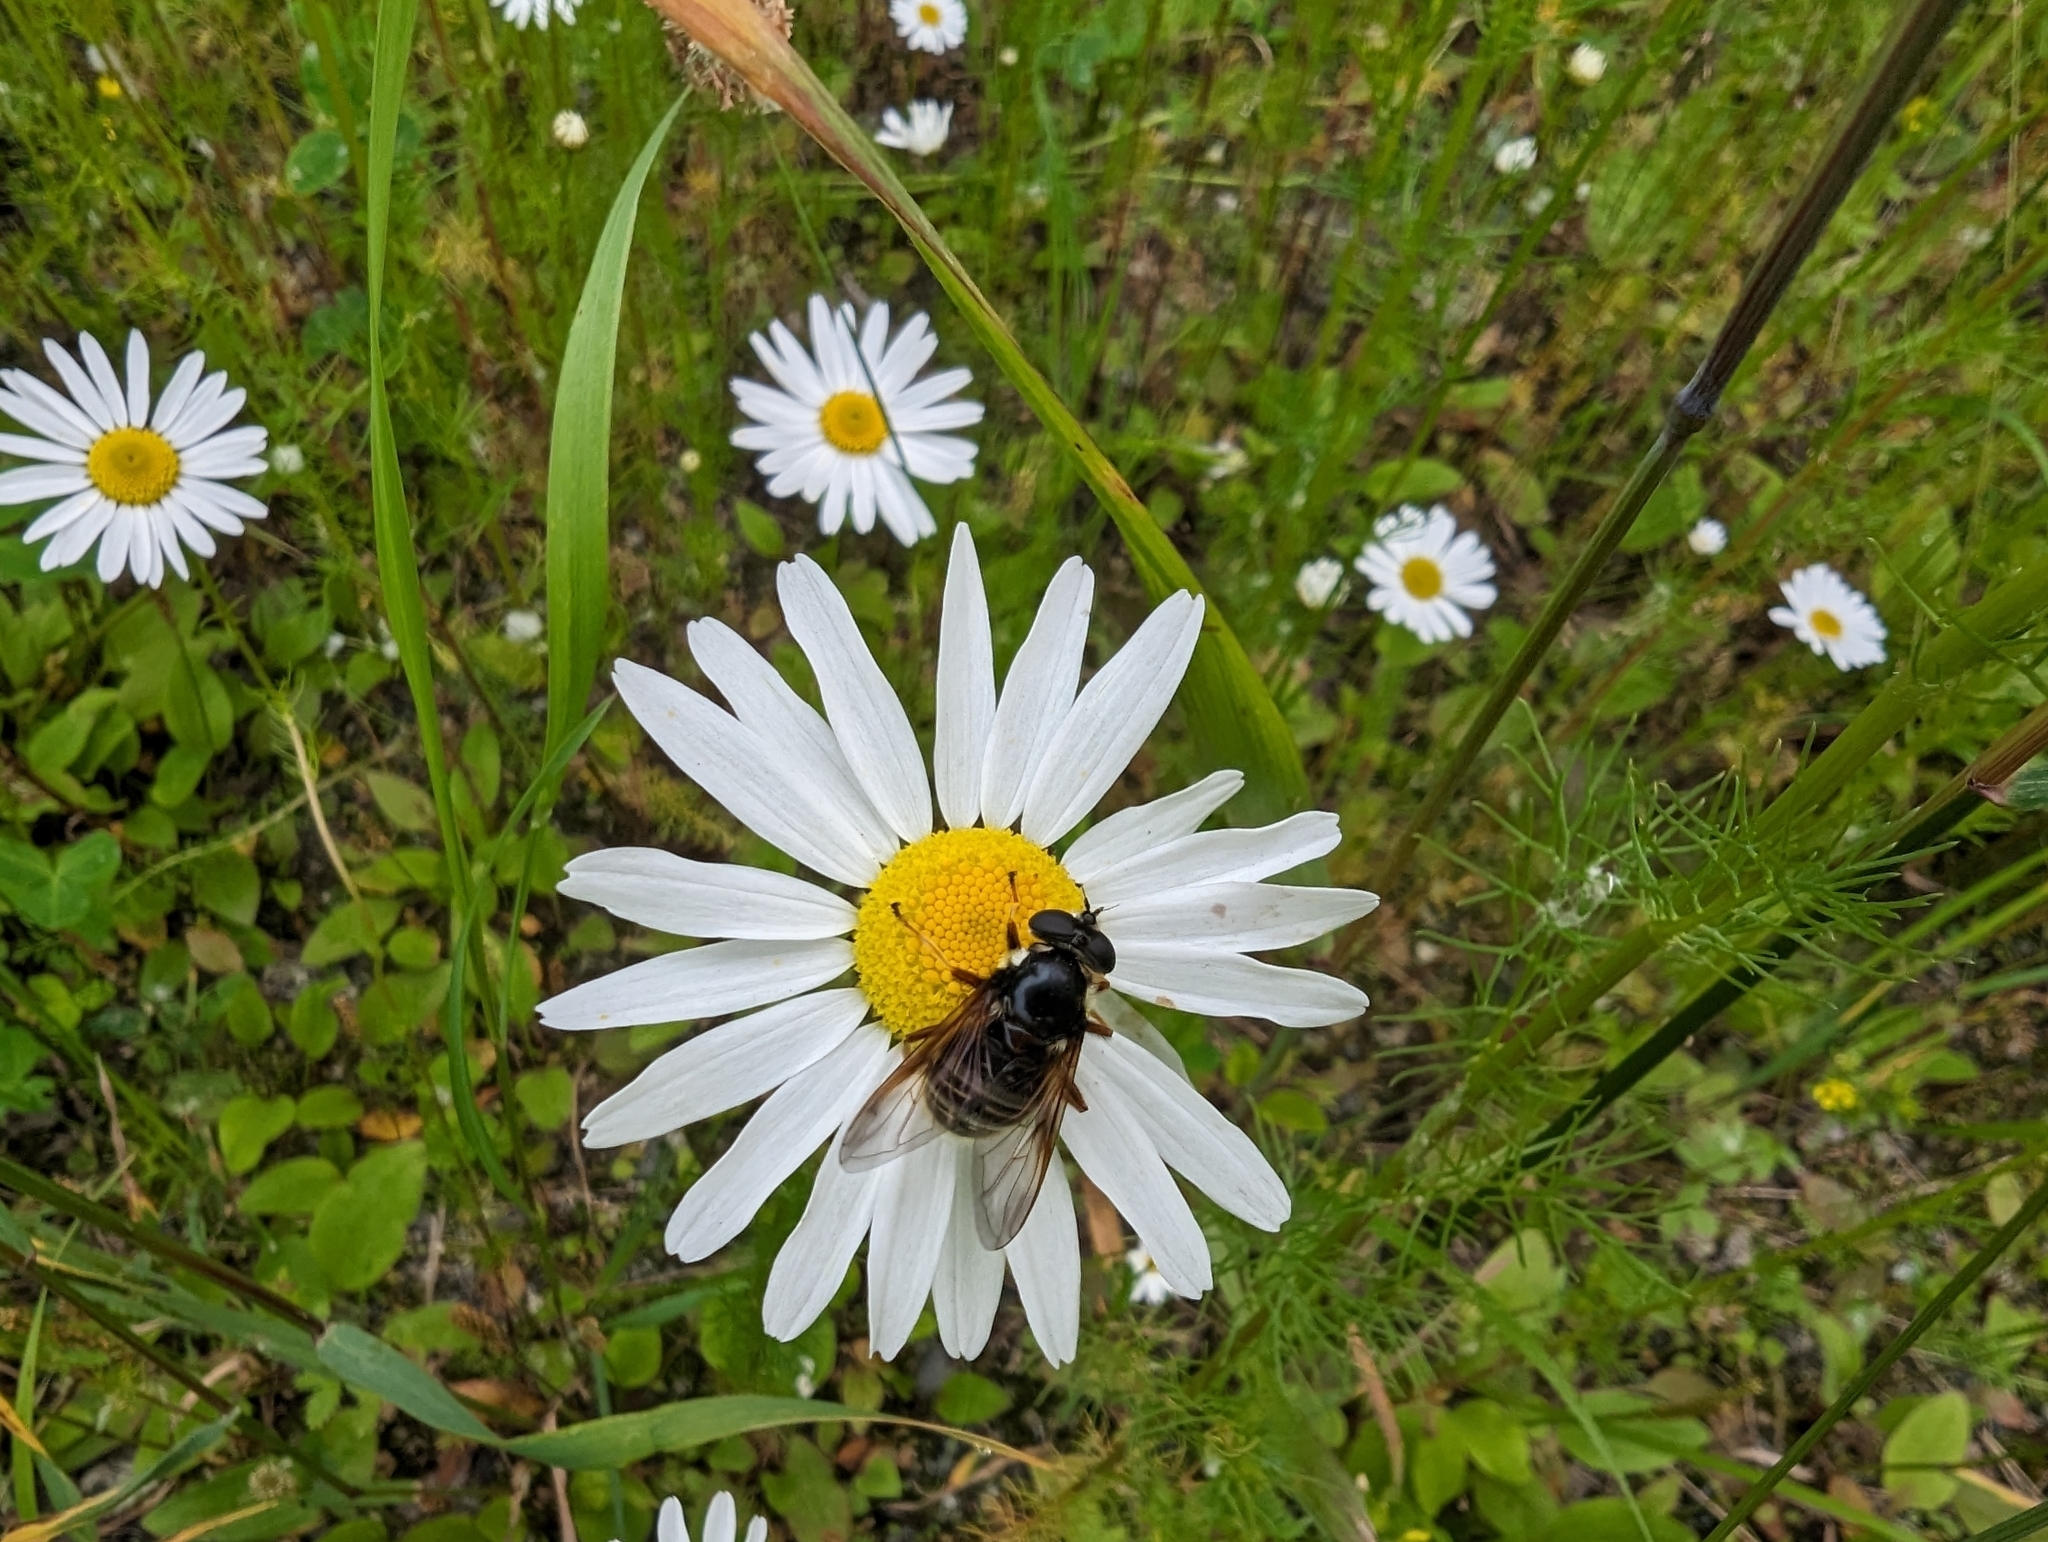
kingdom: Animalia
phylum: Arthropoda
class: Insecta
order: Diptera
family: Syrphidae
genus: Sericomyia
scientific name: Sericomyia militaris
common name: Narrow-banded pond fly
